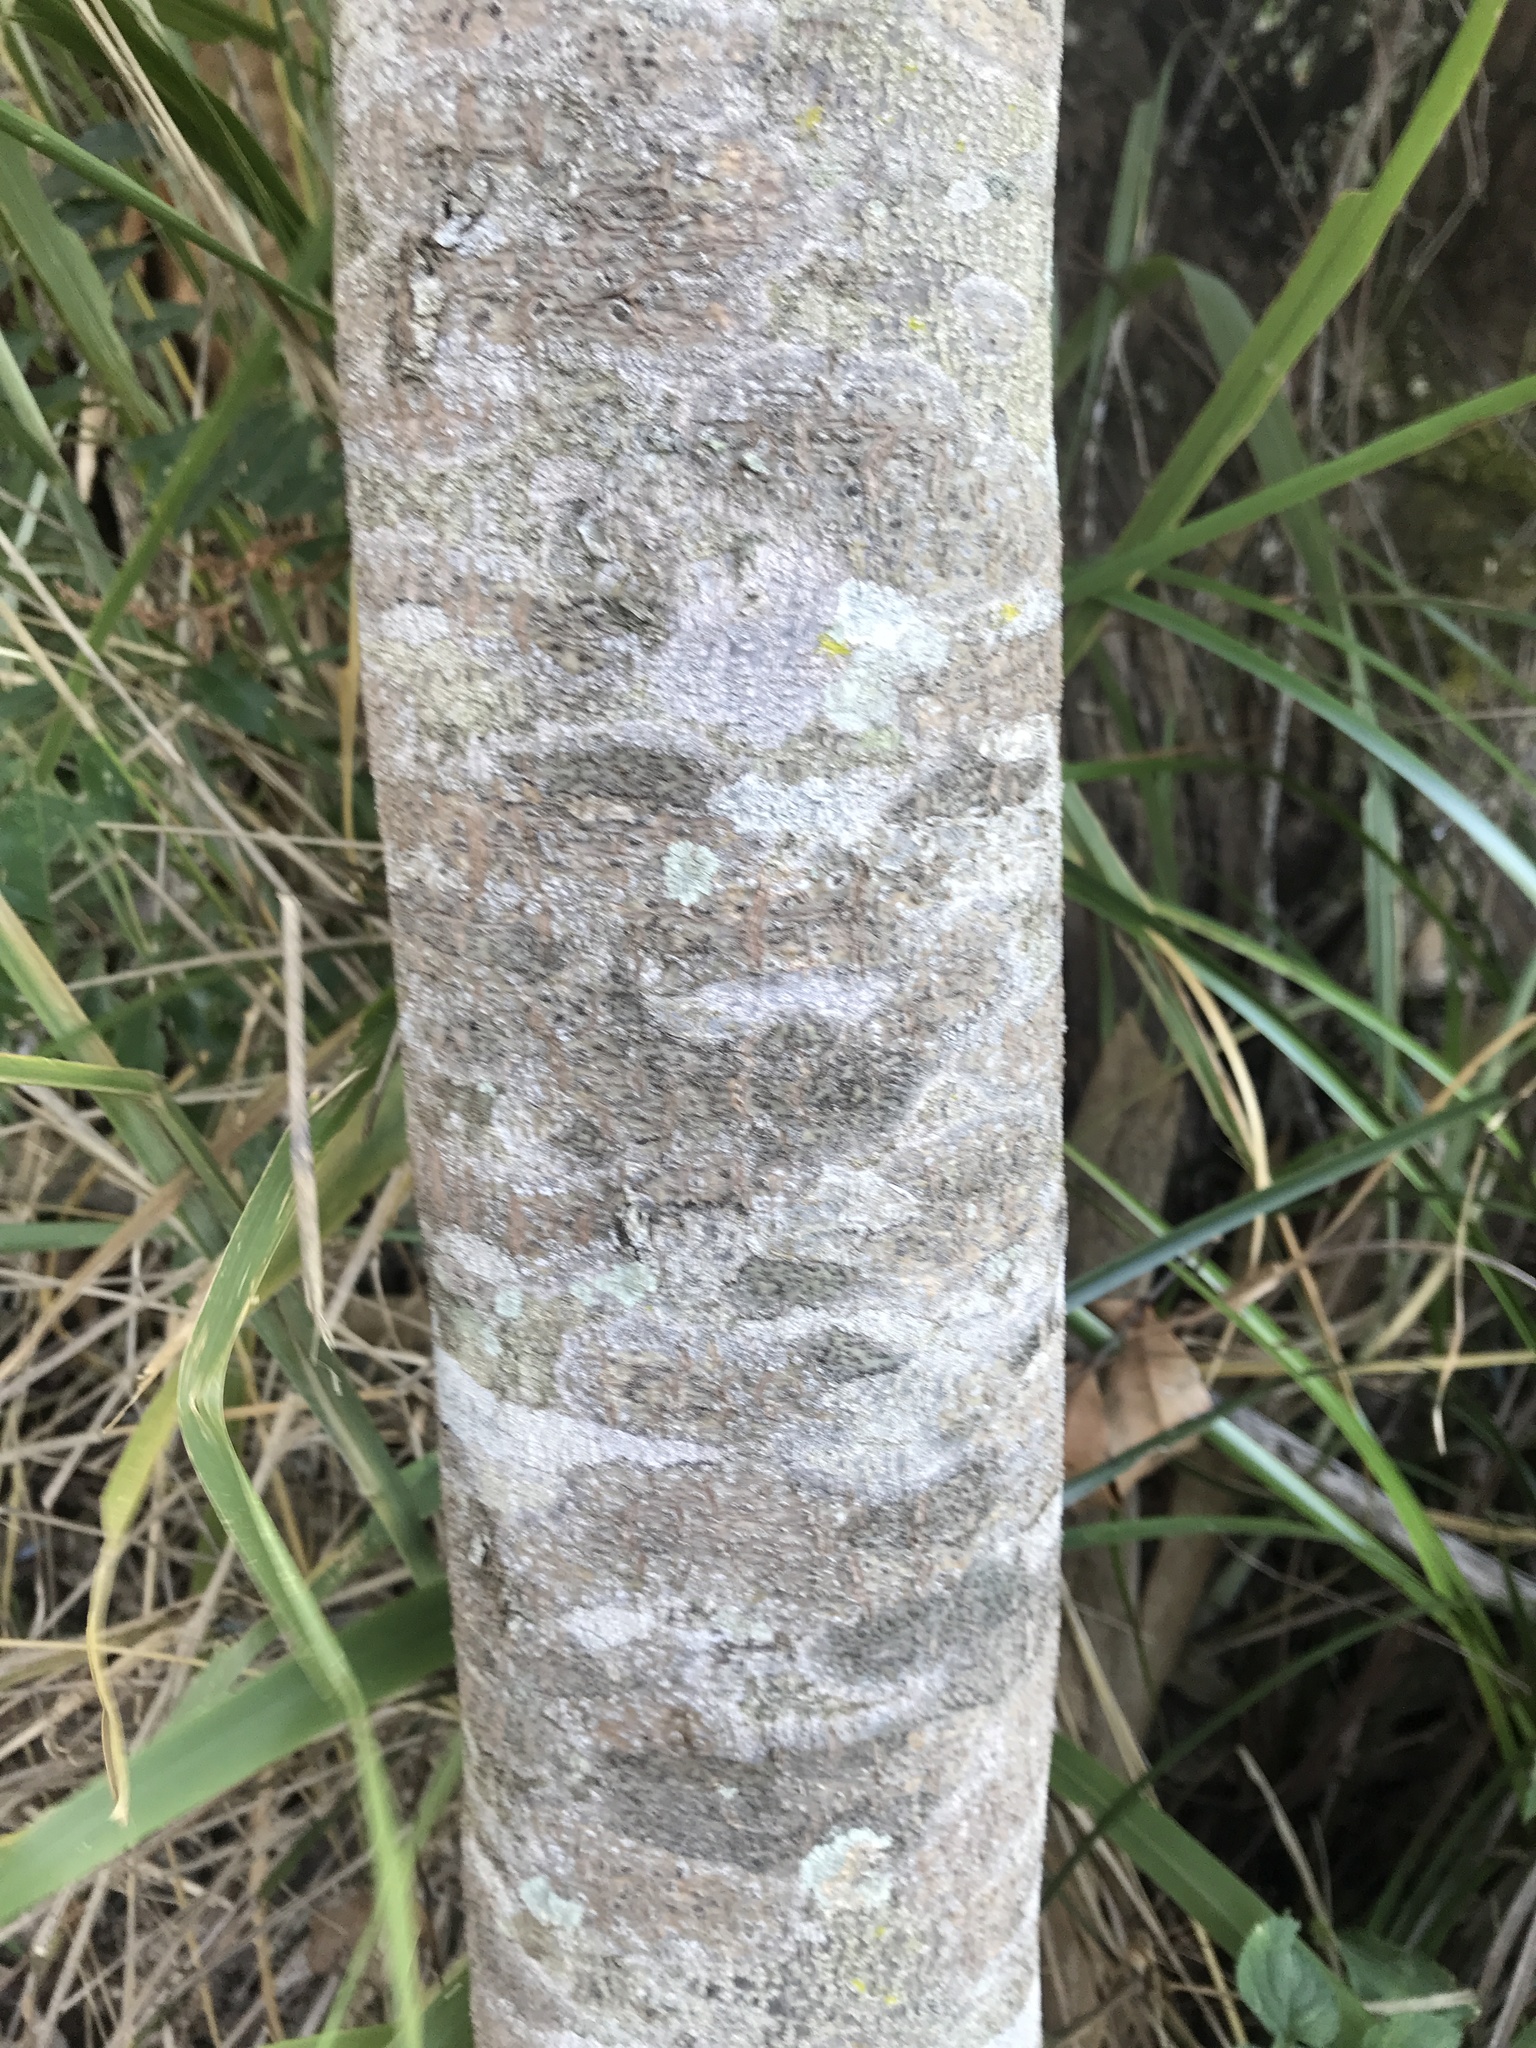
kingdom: Plantae
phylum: Tracheophyta
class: Magnoliopsida
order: Sapindales
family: Rutaceae
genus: Flindersia
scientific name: Flindersia australis
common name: Australian-teak
